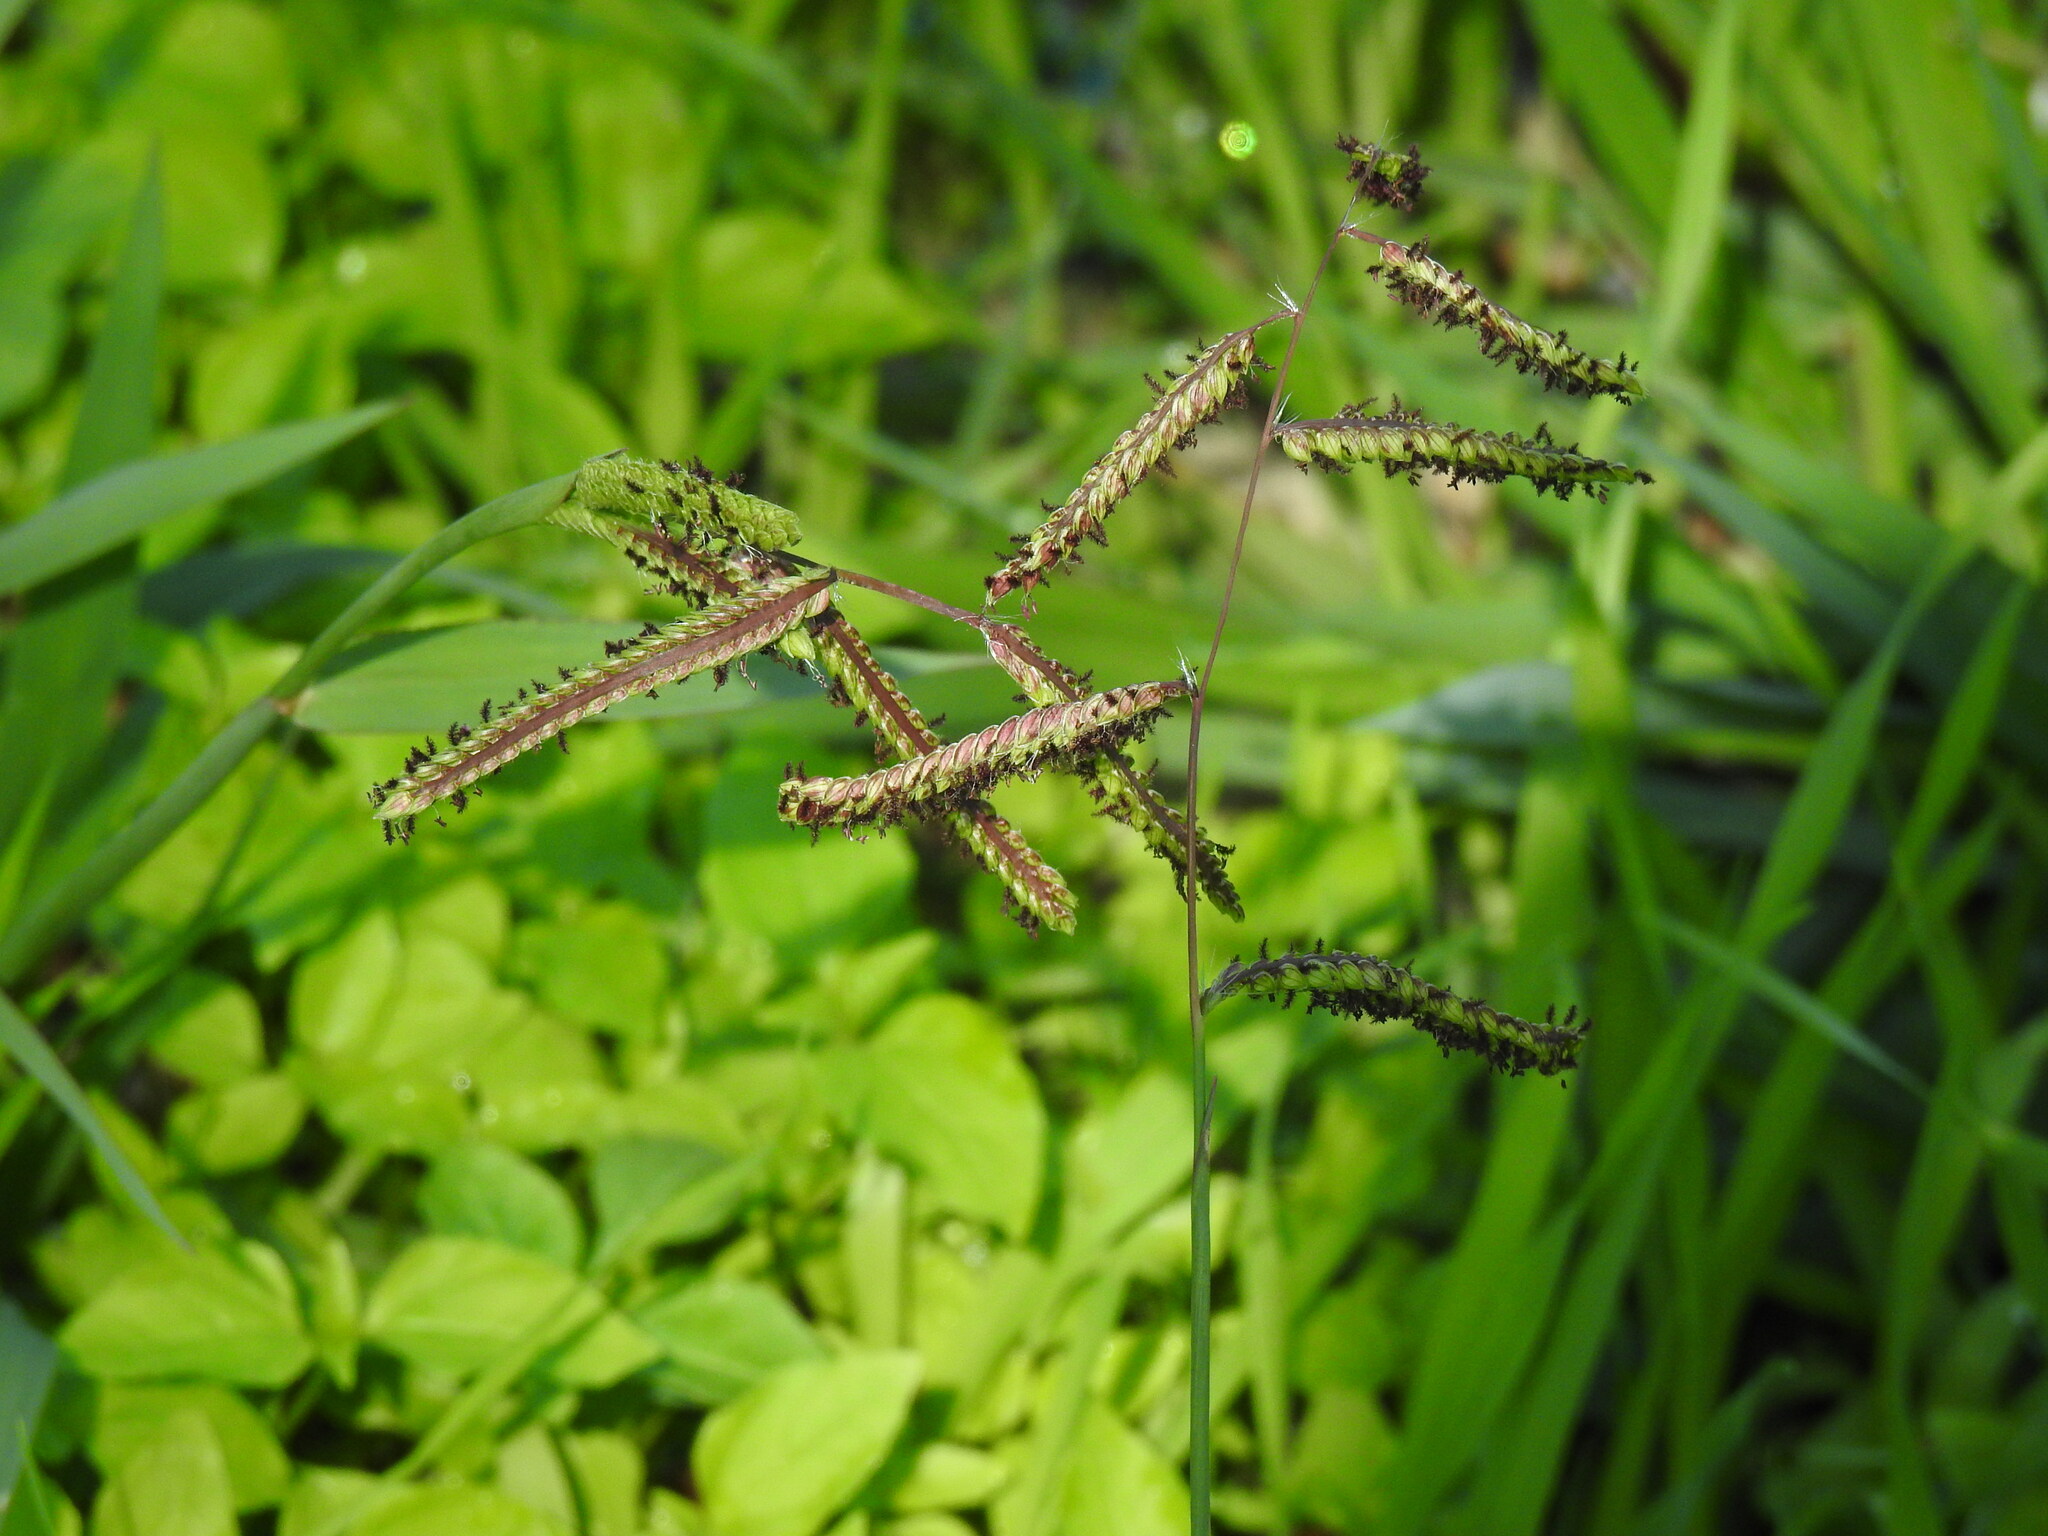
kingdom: Plantae
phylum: Tracheophyta
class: Liliopsida
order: Poales
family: Poaceae
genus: Paspalum
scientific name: Paspalum dilatatum
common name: Dallisgrass
